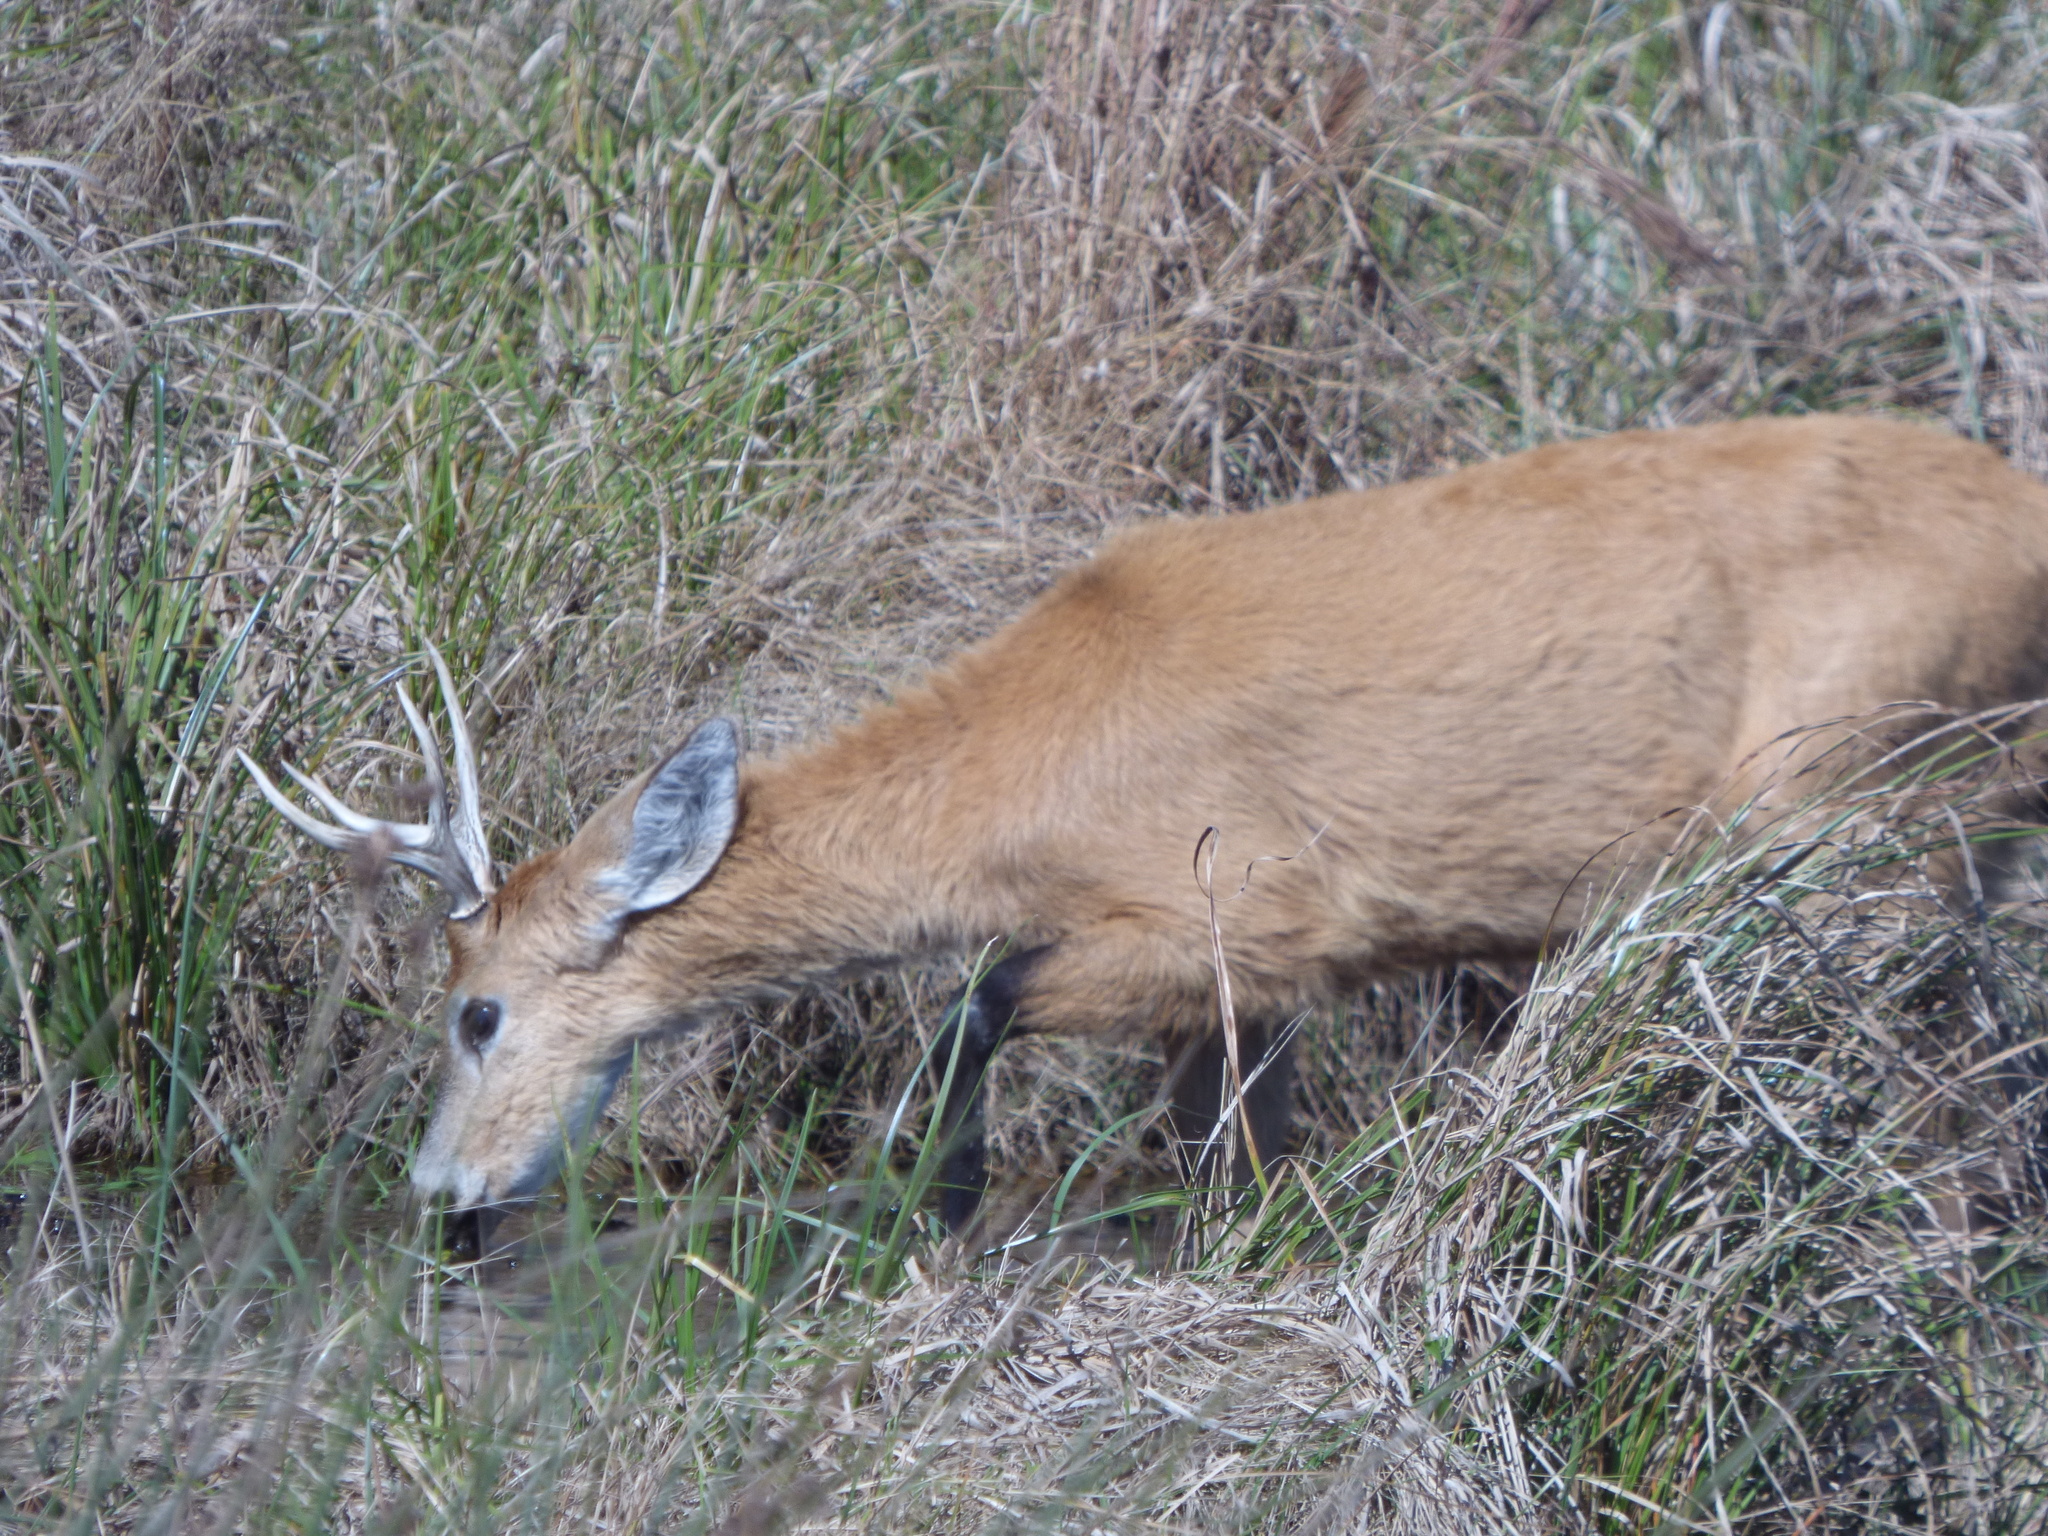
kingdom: Animalia
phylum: Chordata
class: Mammalia
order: Artiodactyla
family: Cervidae
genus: Blastocerus
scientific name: Blastocerus dichotomus
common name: Marsh deer
